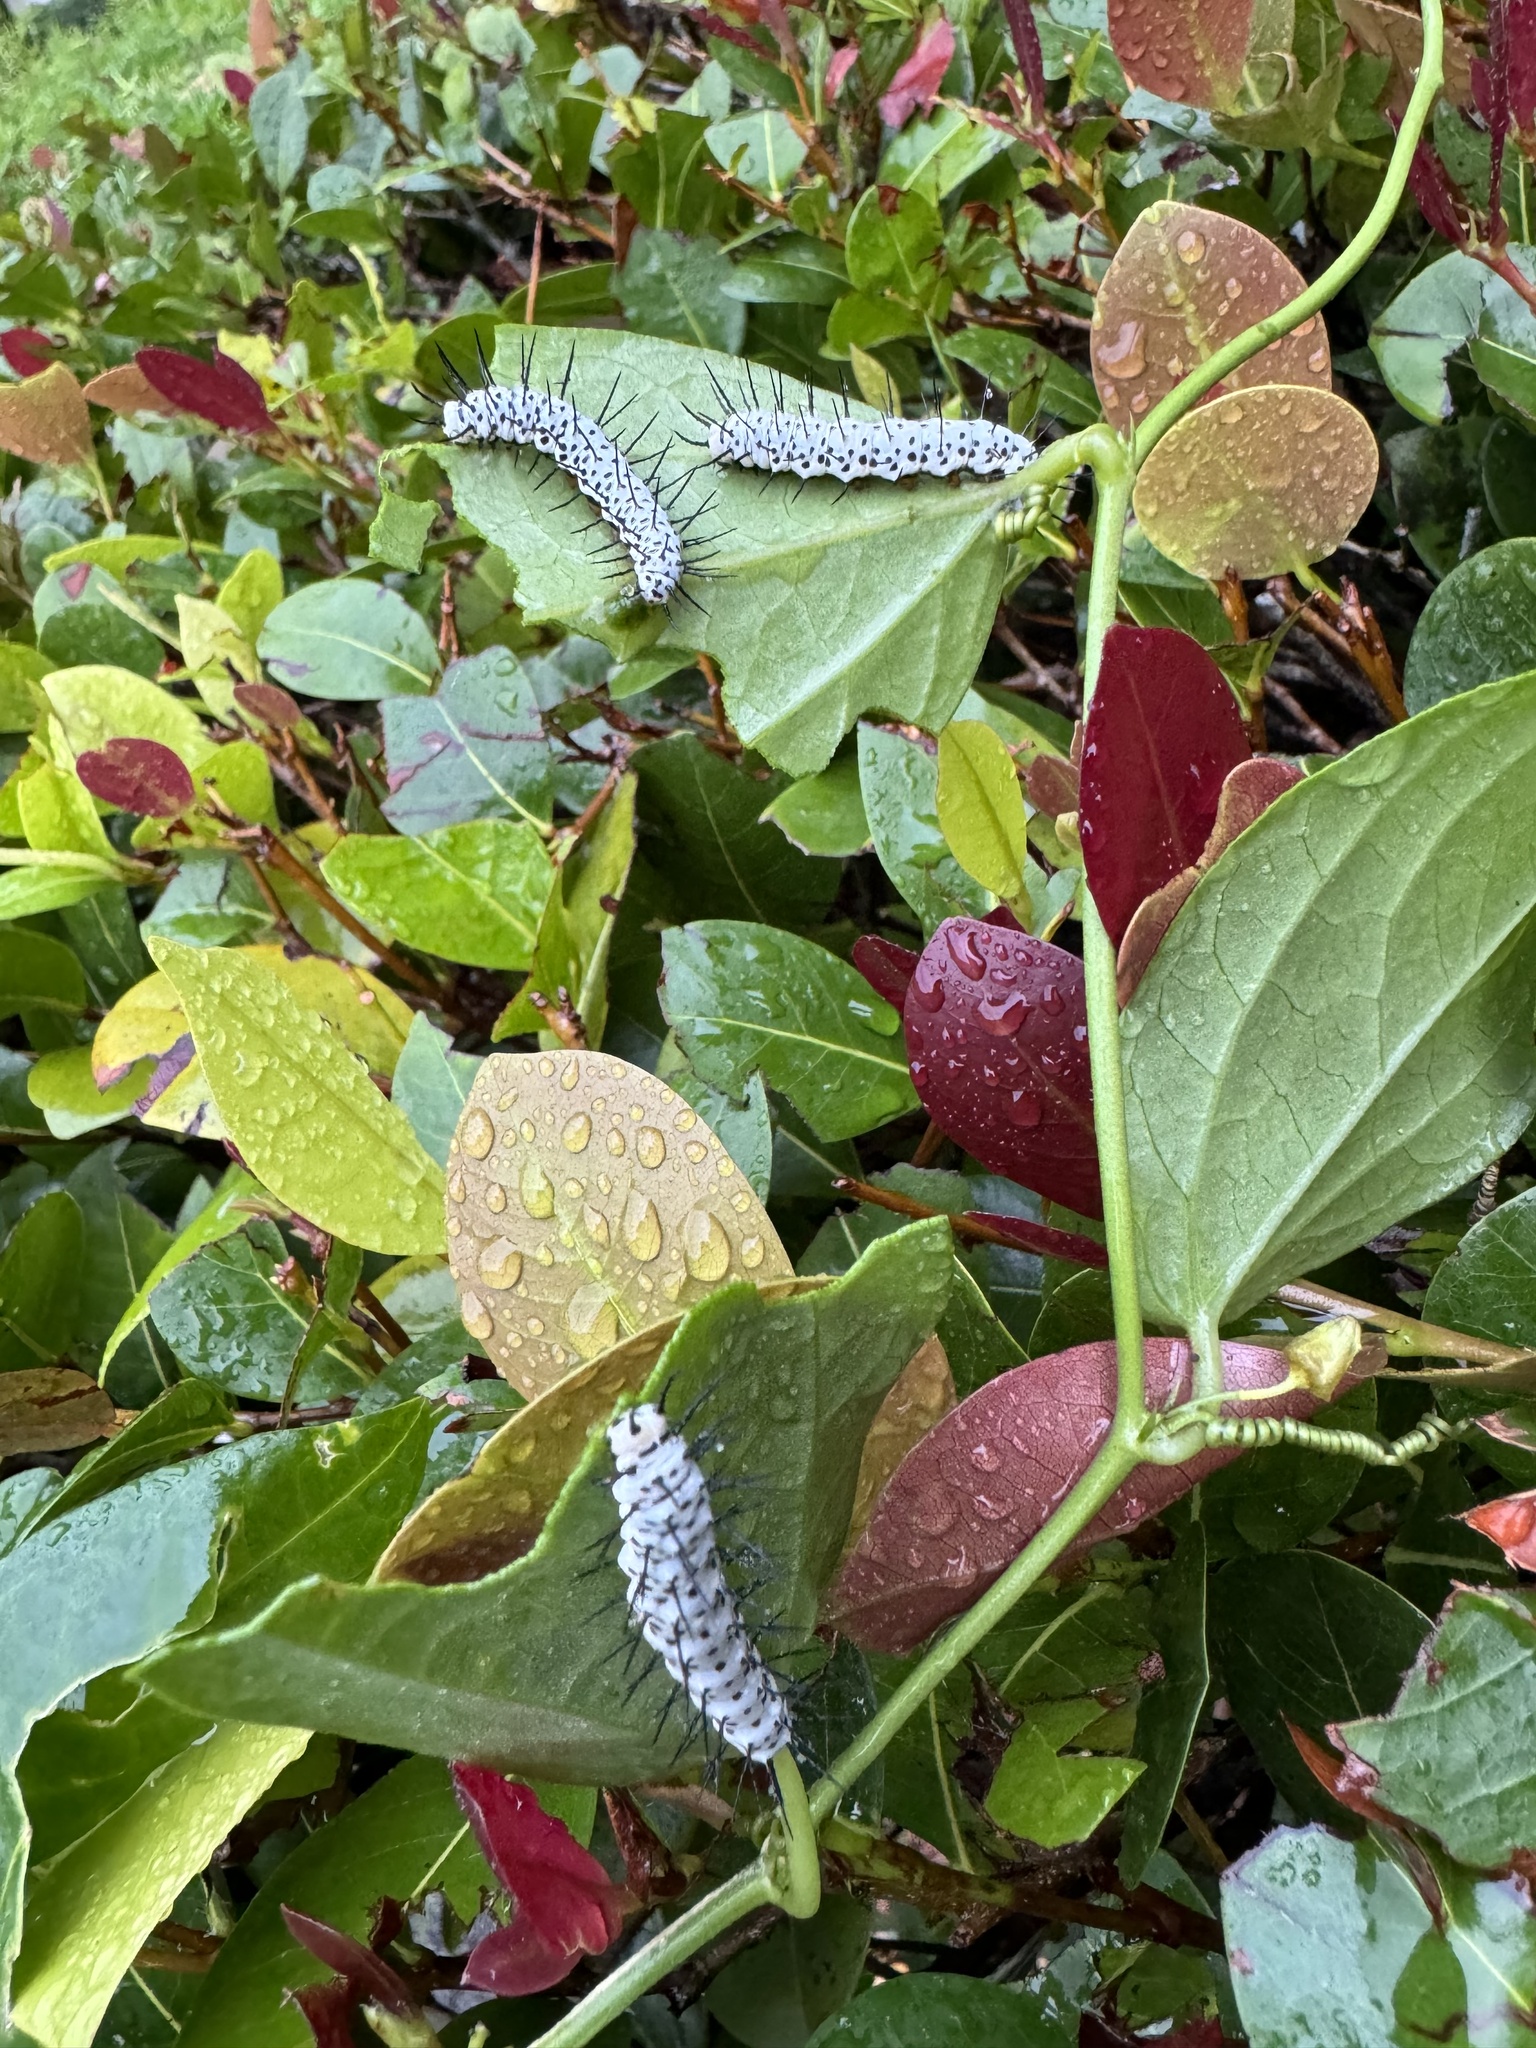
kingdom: Animalia
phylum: Arthropoda
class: Insecta
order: Lepidoptera
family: Nymphalidae
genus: Heliconius
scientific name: Heliconius charithonia
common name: Zebra long wing
